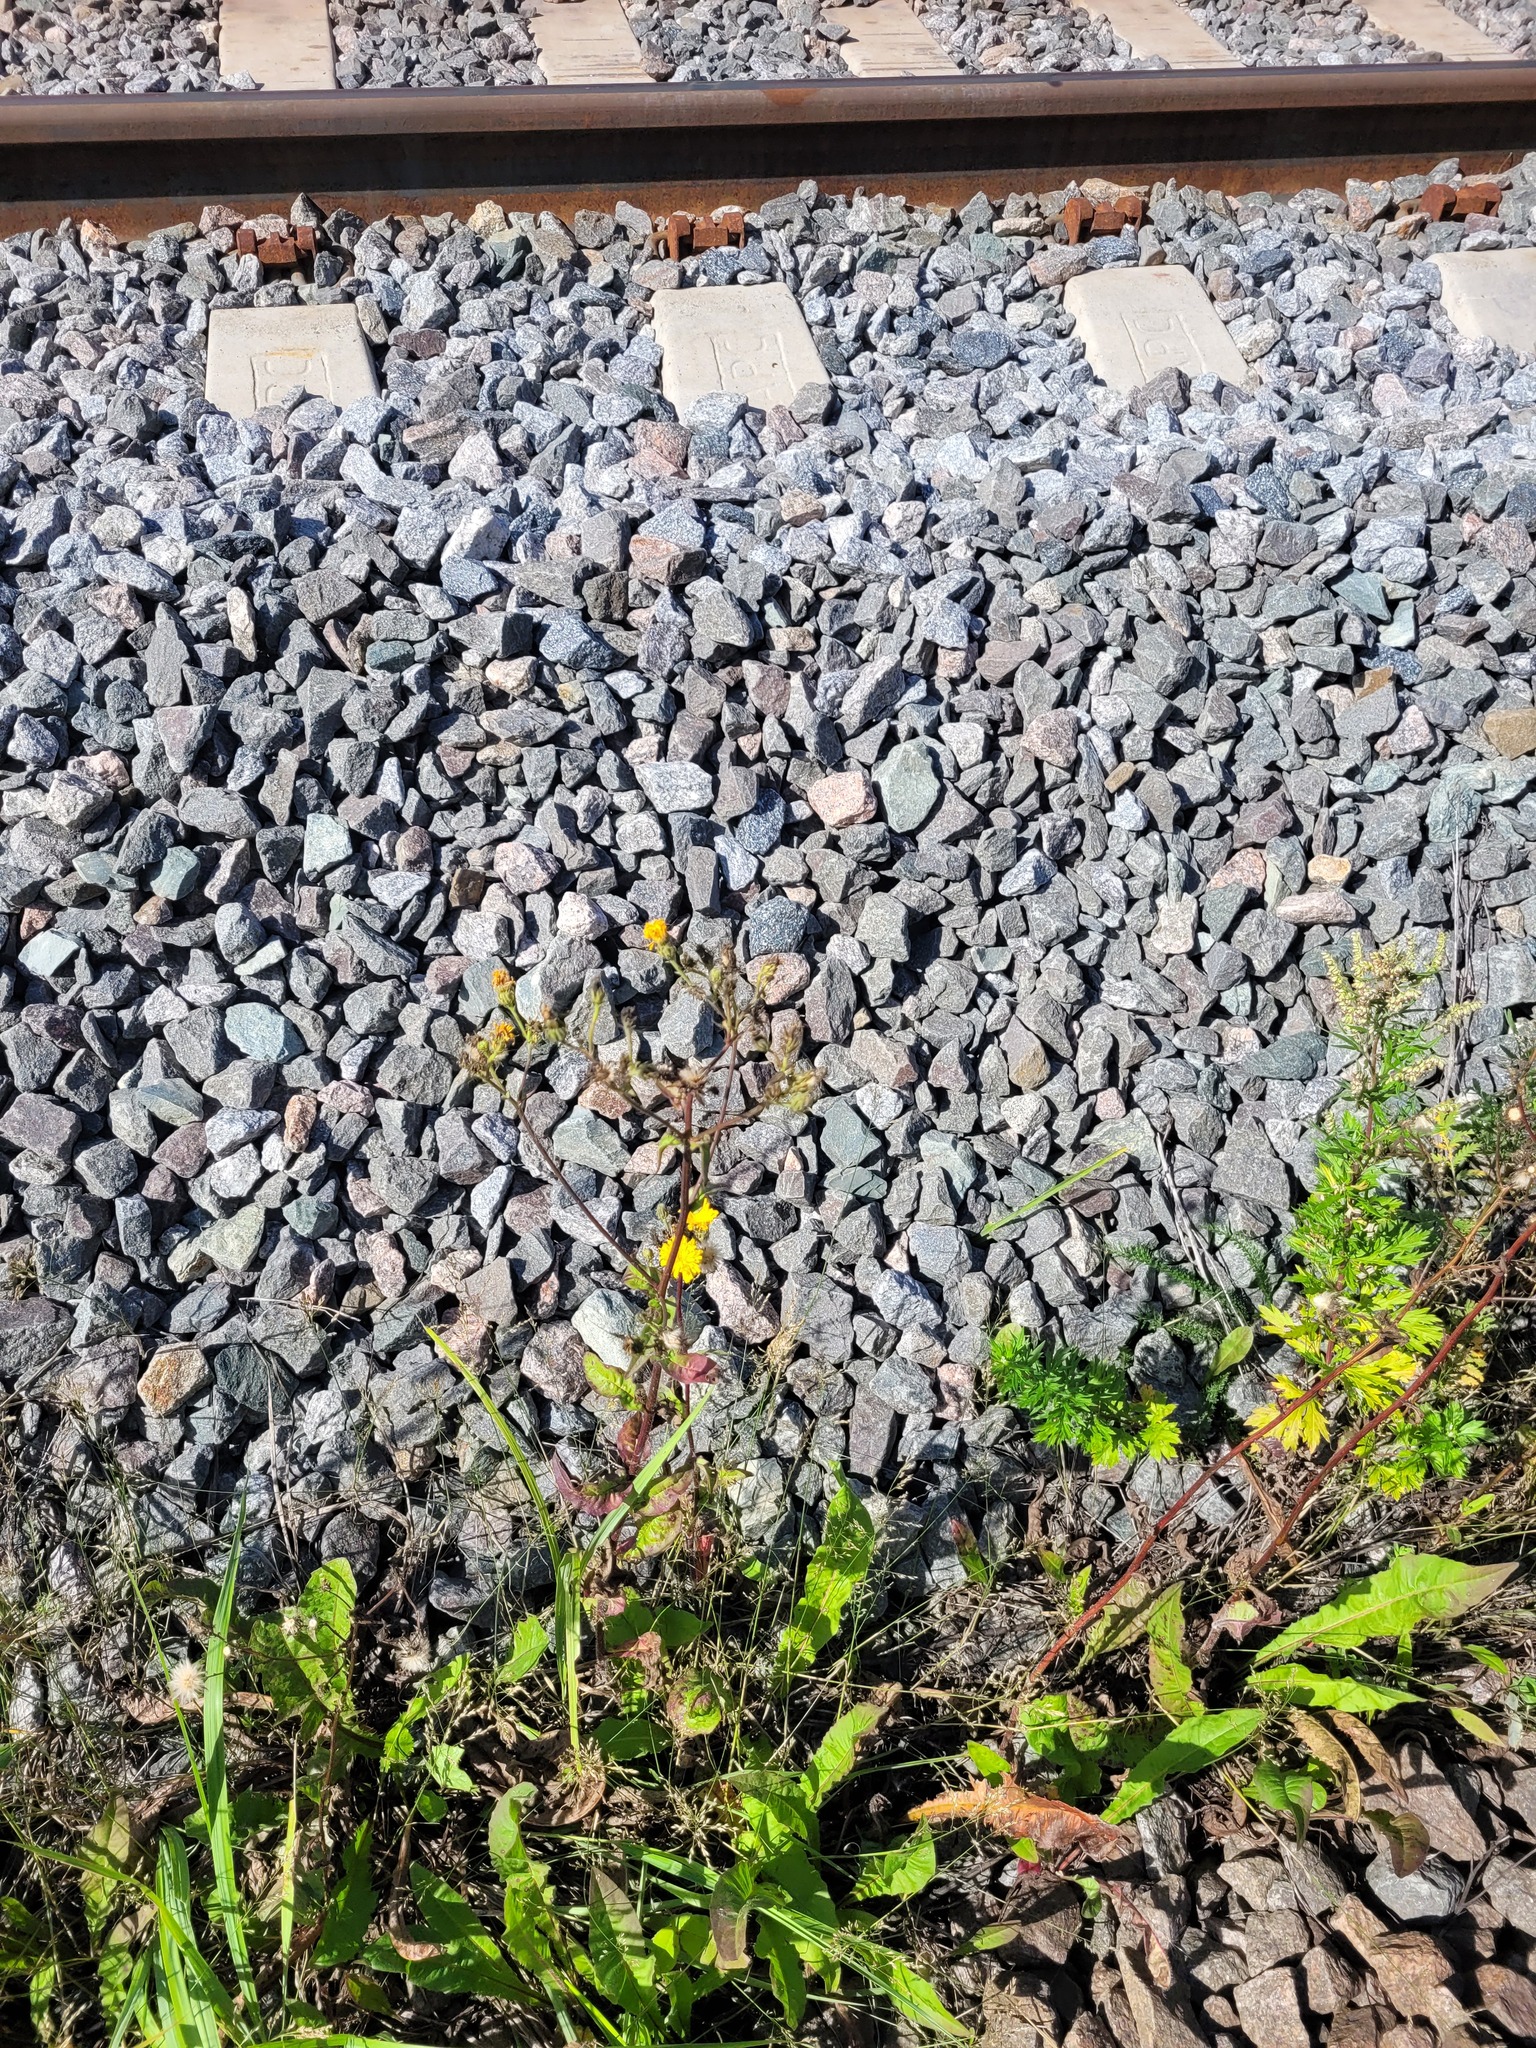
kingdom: Plantae
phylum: Tracheophyta
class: Magnoliopsida
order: Asterales
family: Asteraceae
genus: Picris
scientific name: Picris hieracioides
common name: Hawkweed oxtongue
